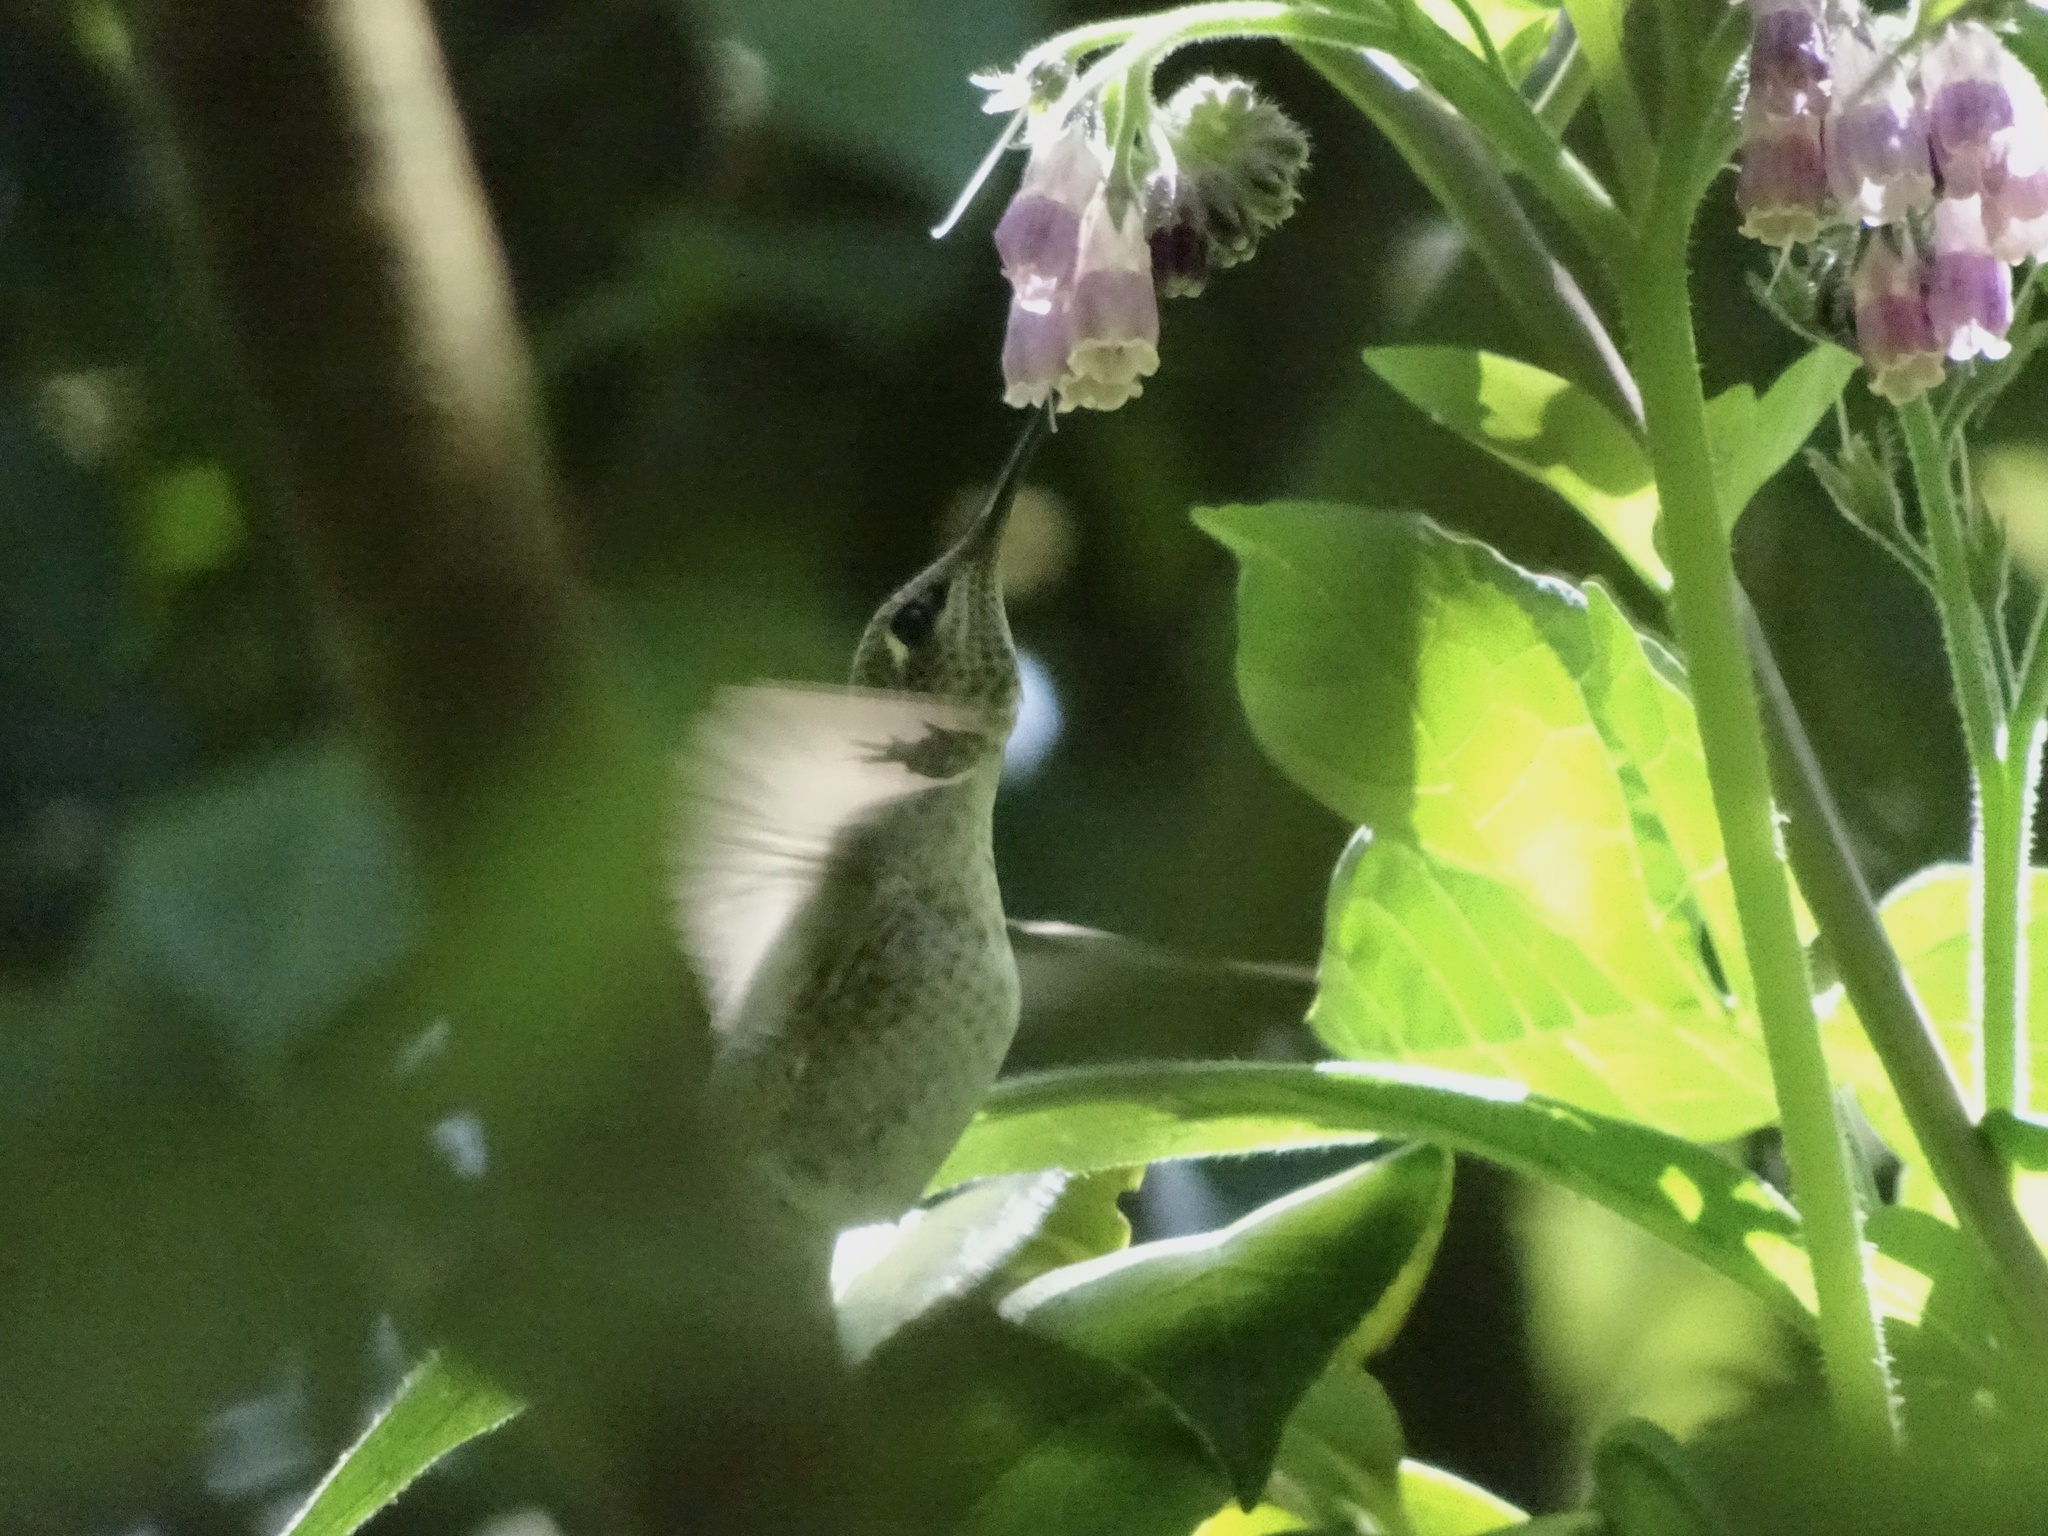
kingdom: Animalia
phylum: Chordata
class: Aves
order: Apodiformes
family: Trochilidae
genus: Calypte
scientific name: Calypte anna
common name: Anna's hummingbird
